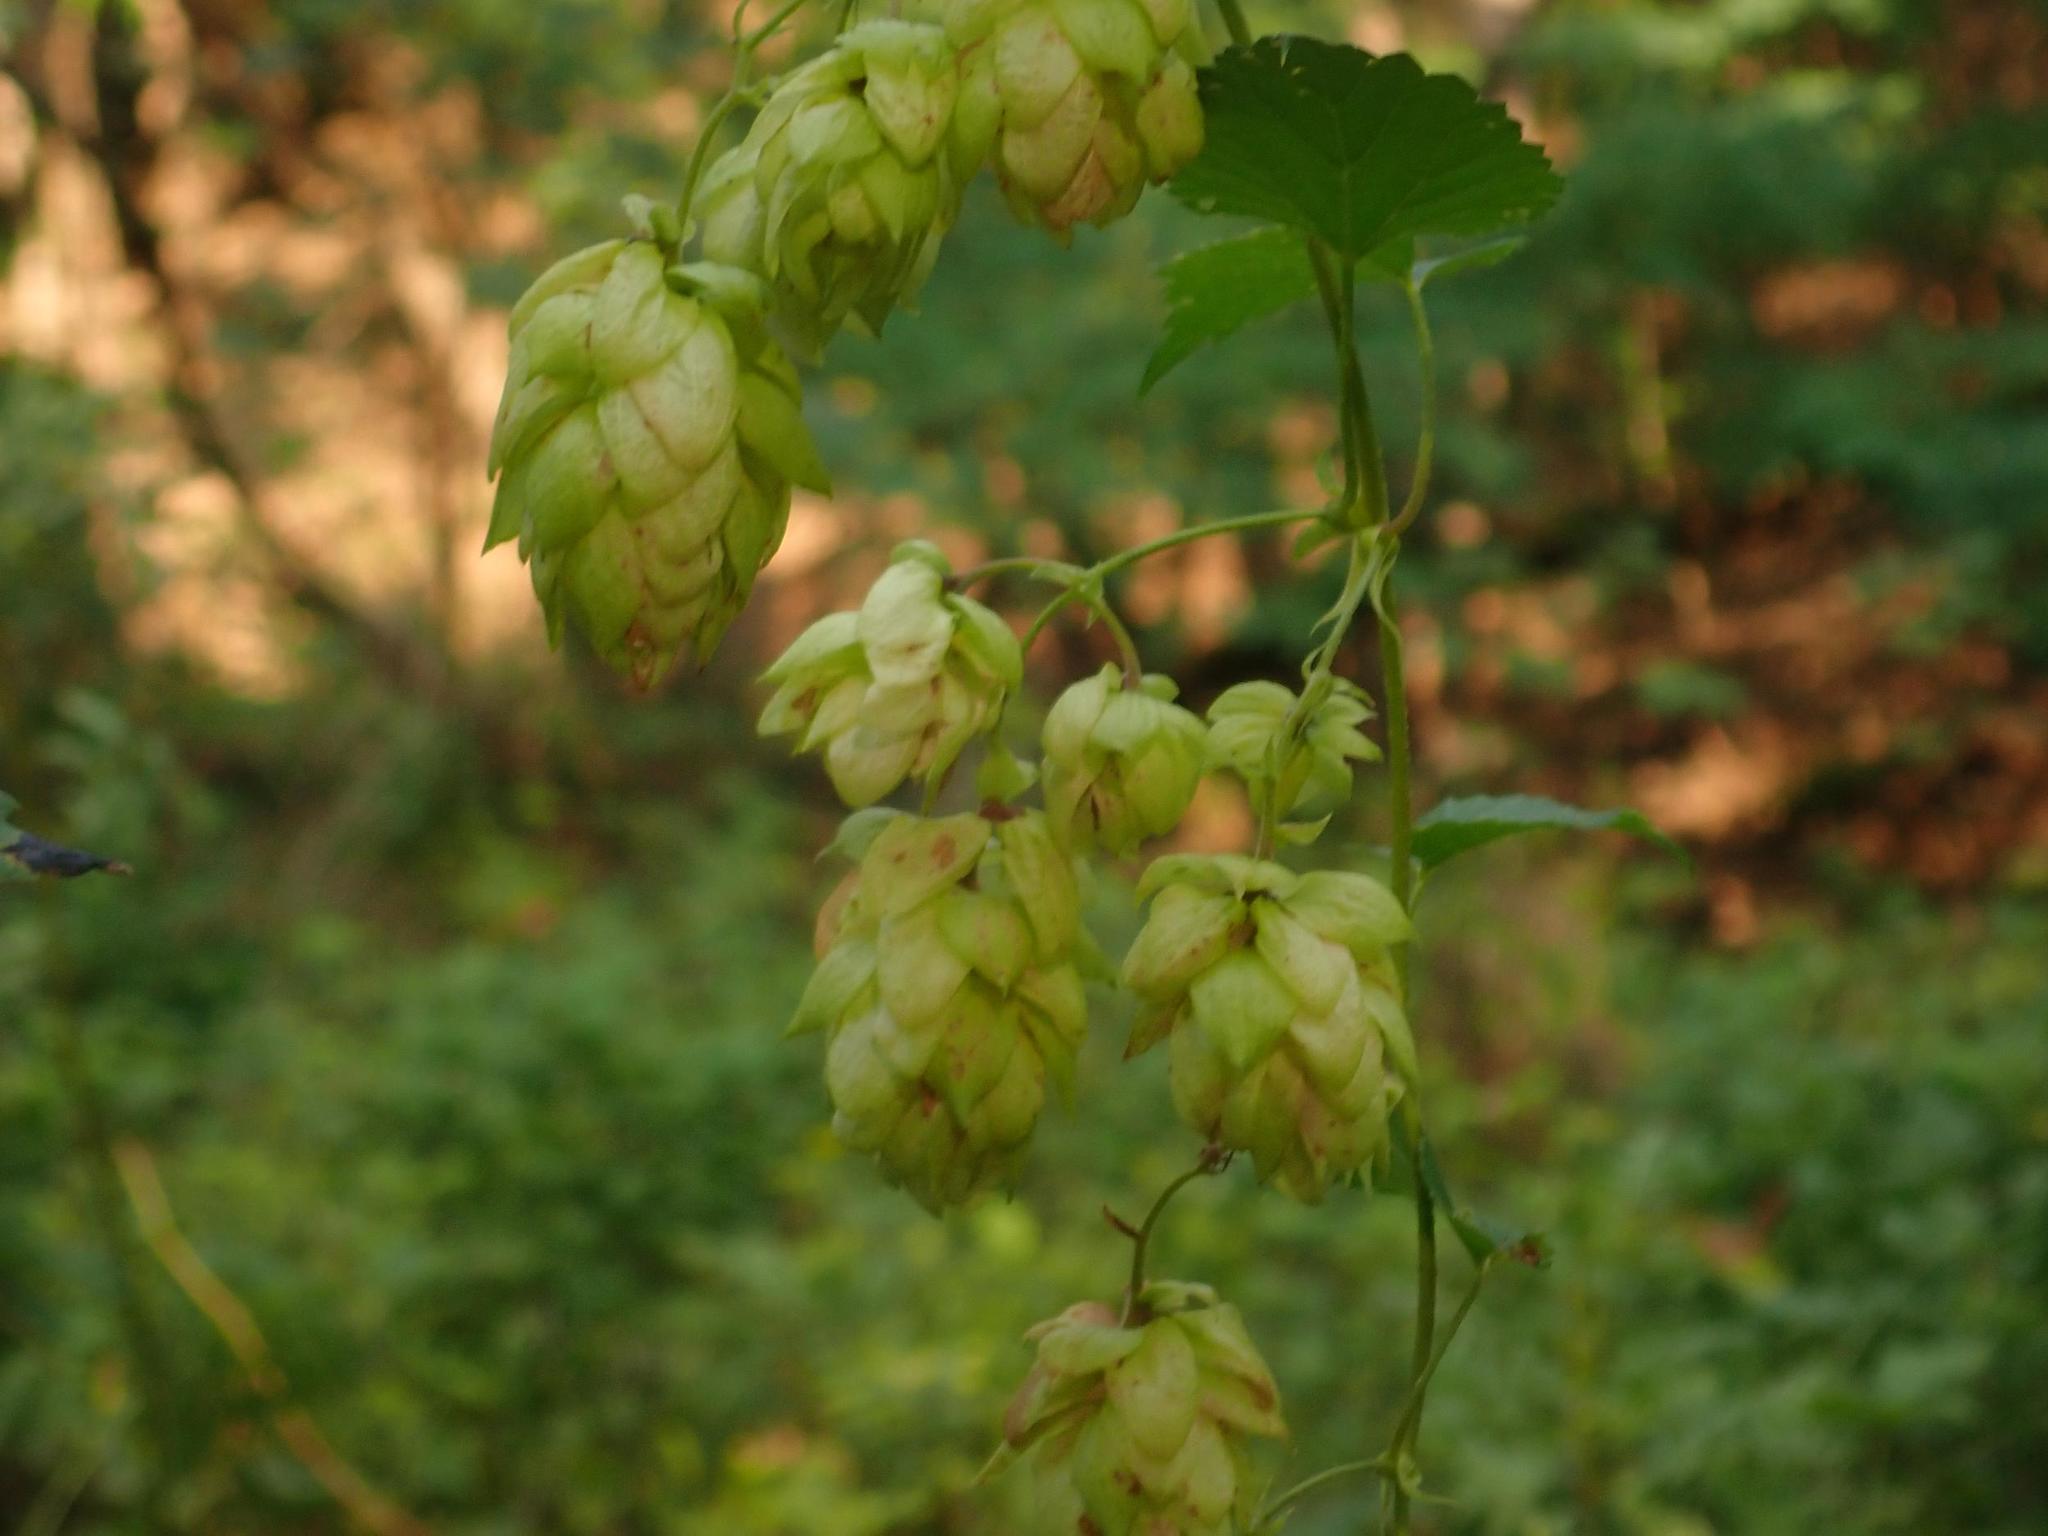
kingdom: Plantae
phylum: Tracheophyta
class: Magnoliopsida
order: Rosales
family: Cannabaceae
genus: Humulus
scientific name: Humulus lupulus
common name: Hop
